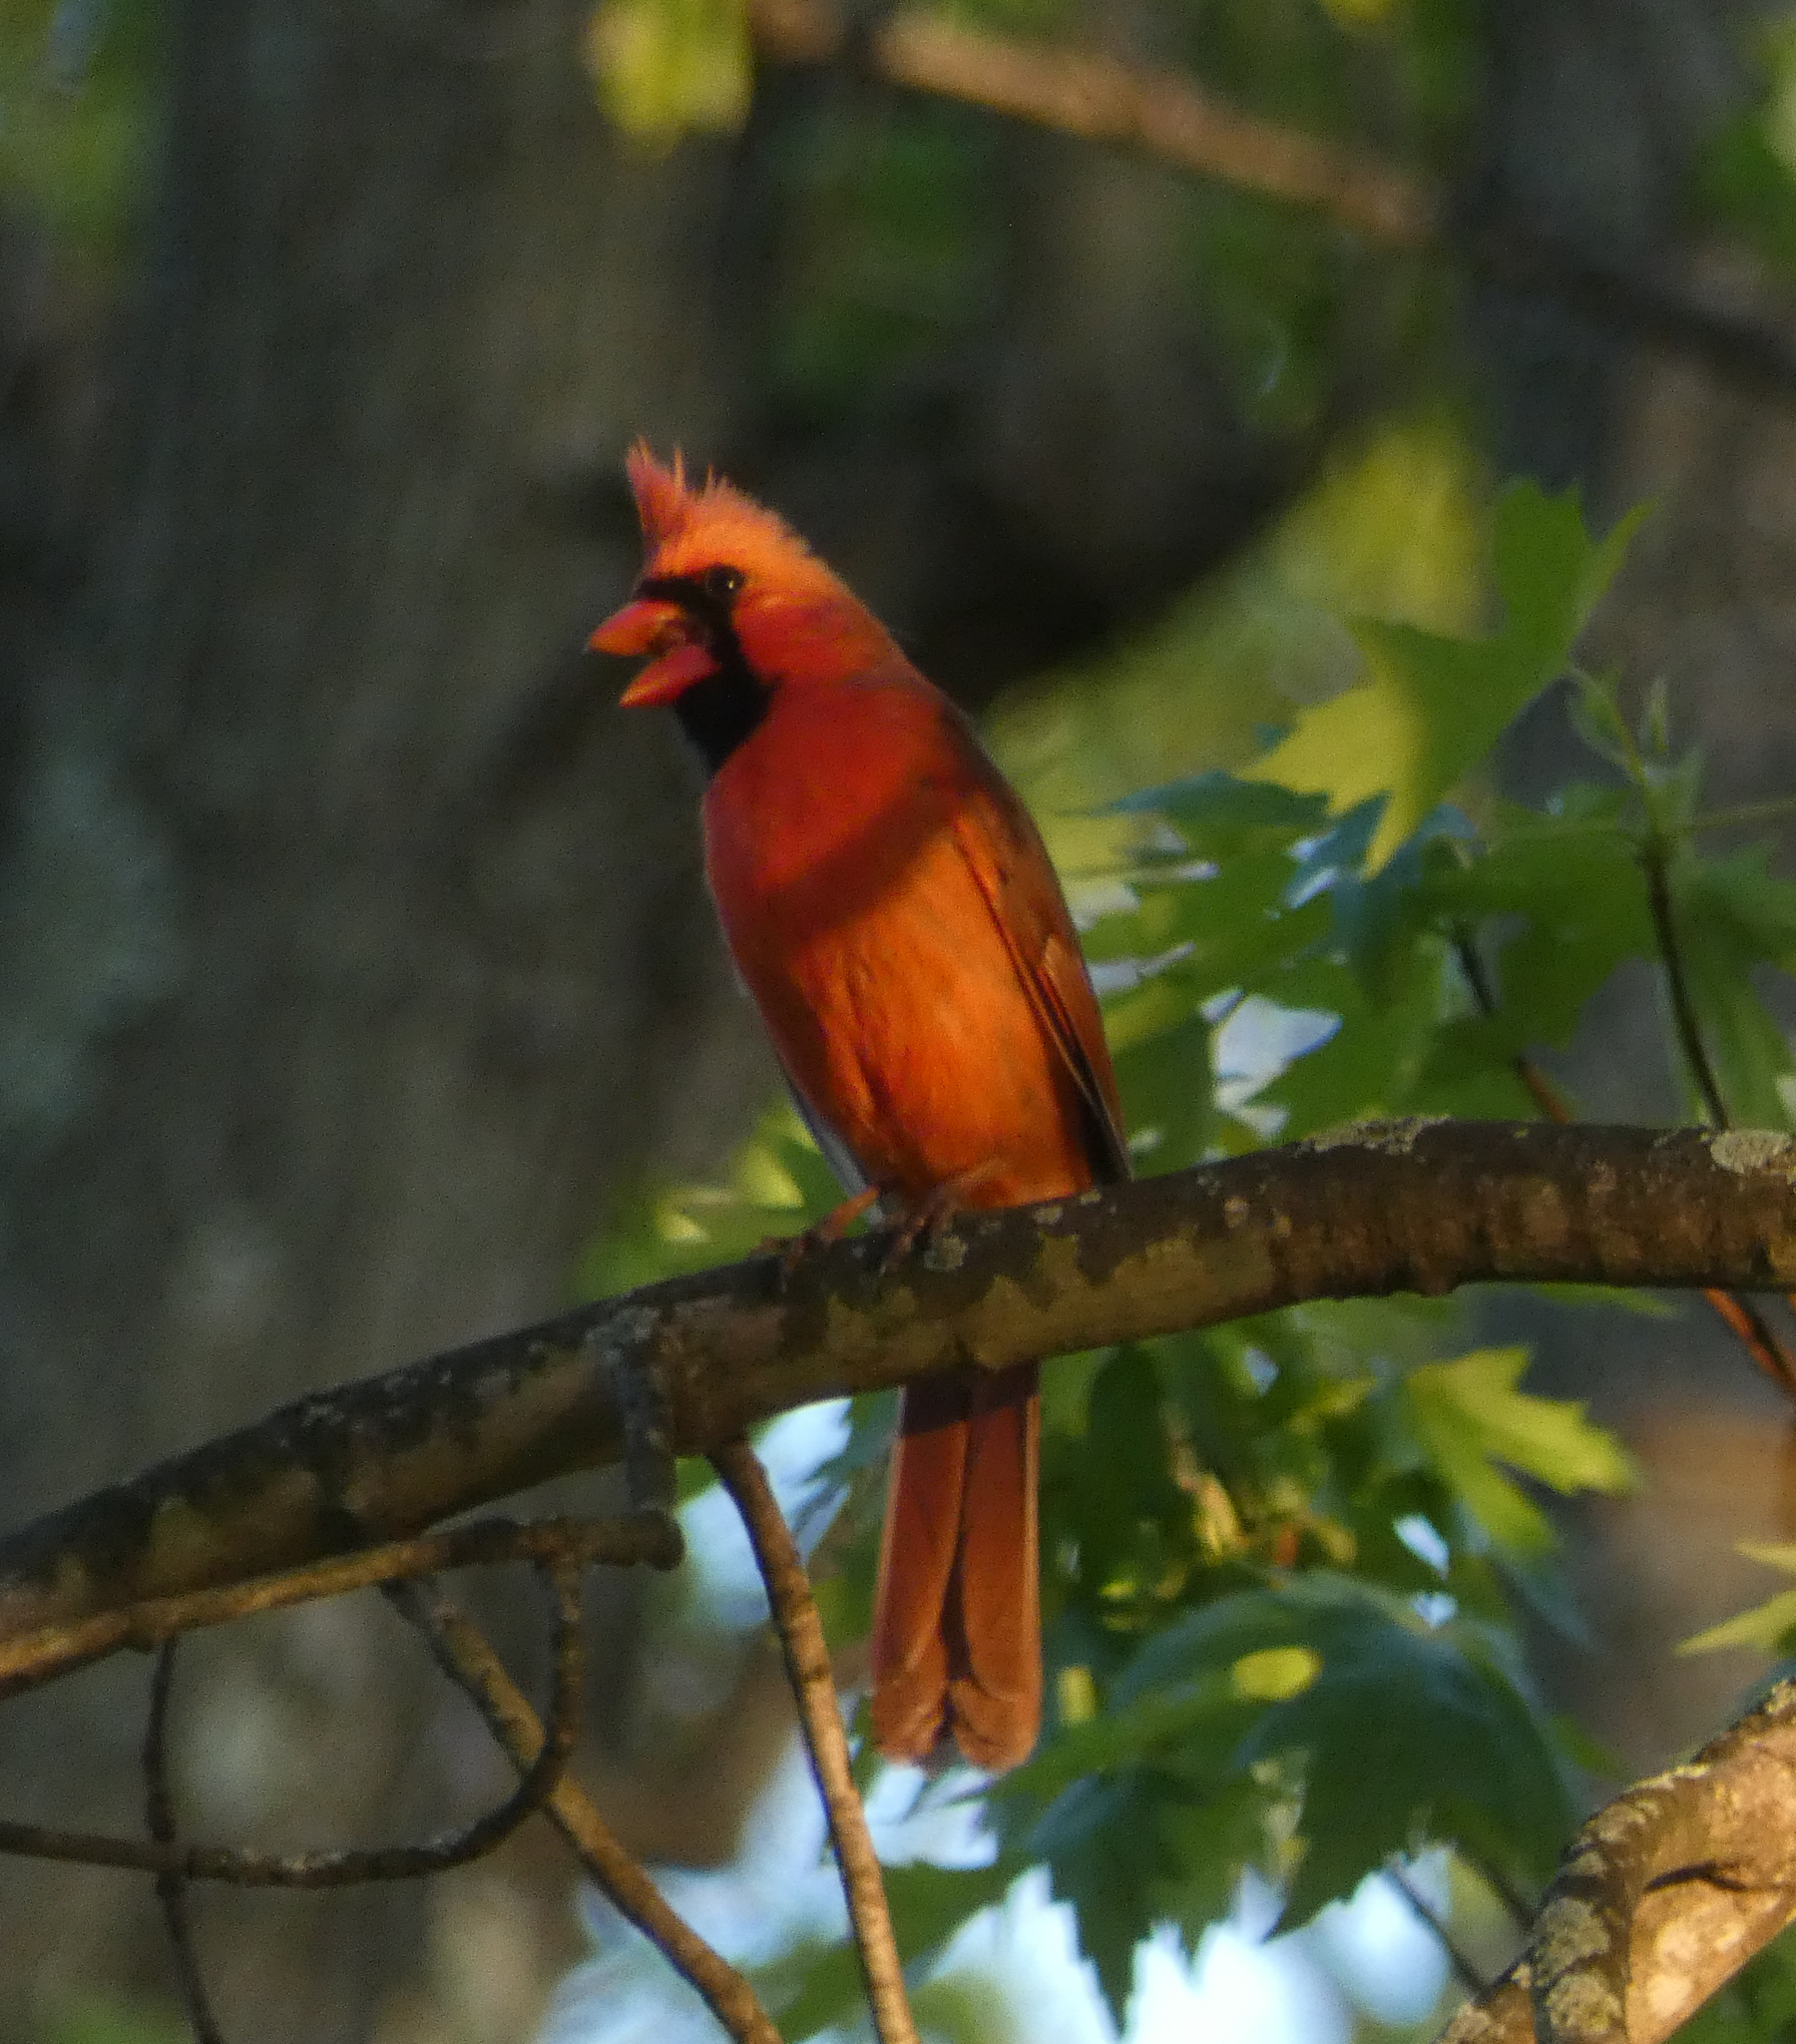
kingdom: Animalia
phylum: Chordata
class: Aves
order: Passeriformes
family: Cardinalidae
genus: Cardinalis
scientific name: Cardinalis cardinalis
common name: Northern cardinal
